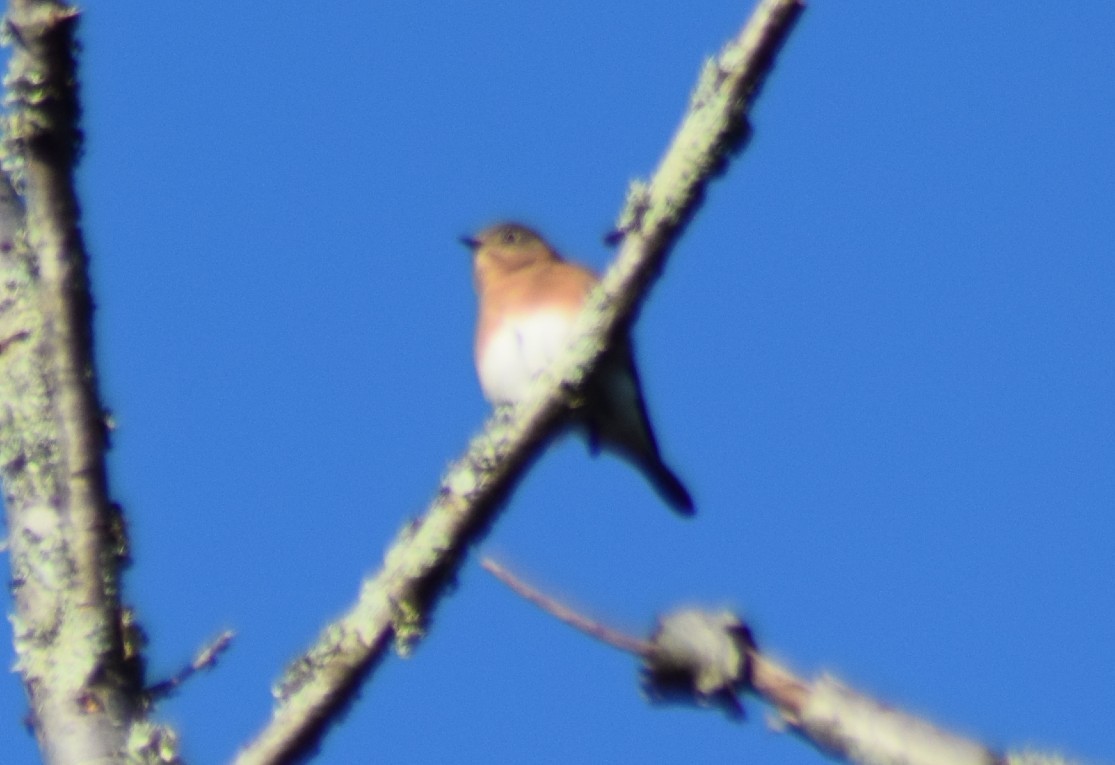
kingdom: Animalia
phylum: Chordata
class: Aves
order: Passeriformes
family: Turdidae
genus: Sialia
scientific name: Sialia sialis
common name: Eastern bluebird
